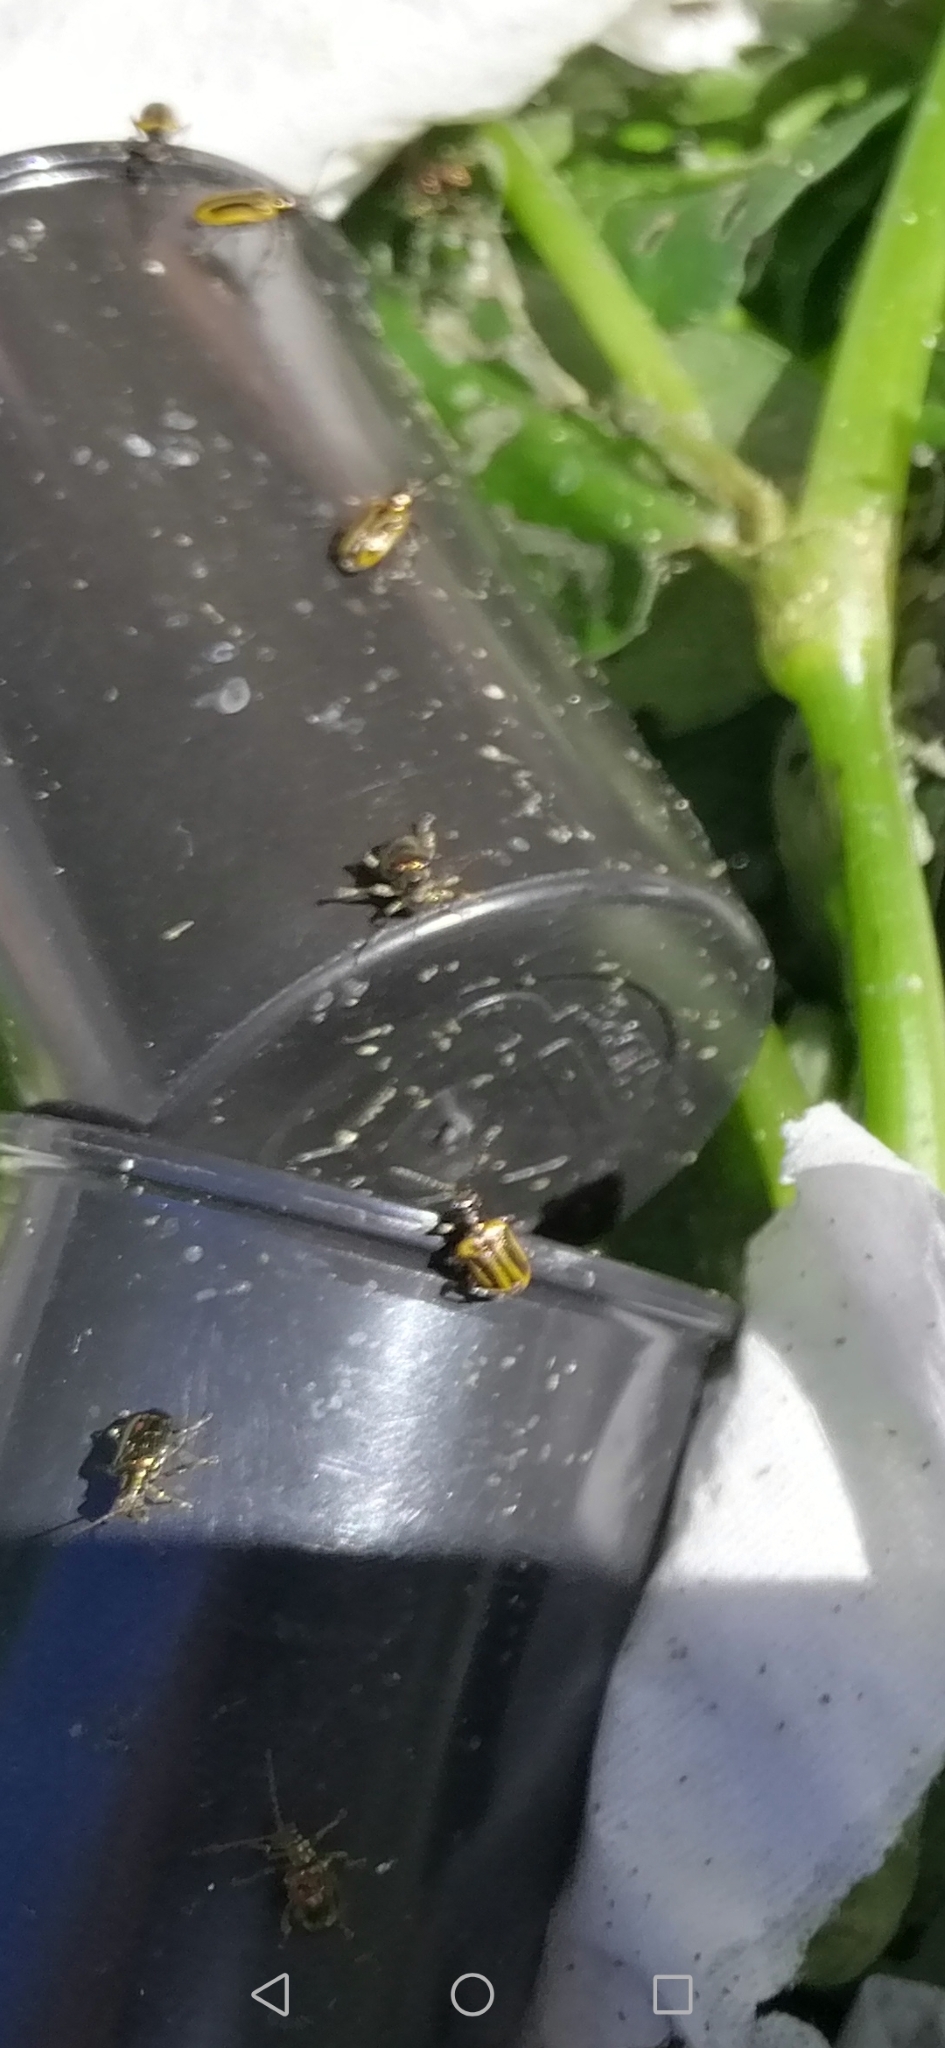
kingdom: Animalia
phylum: Arthropoda
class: Insecta
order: Coleoptera
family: Chrysomelidae
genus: Neolema
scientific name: Neolema
